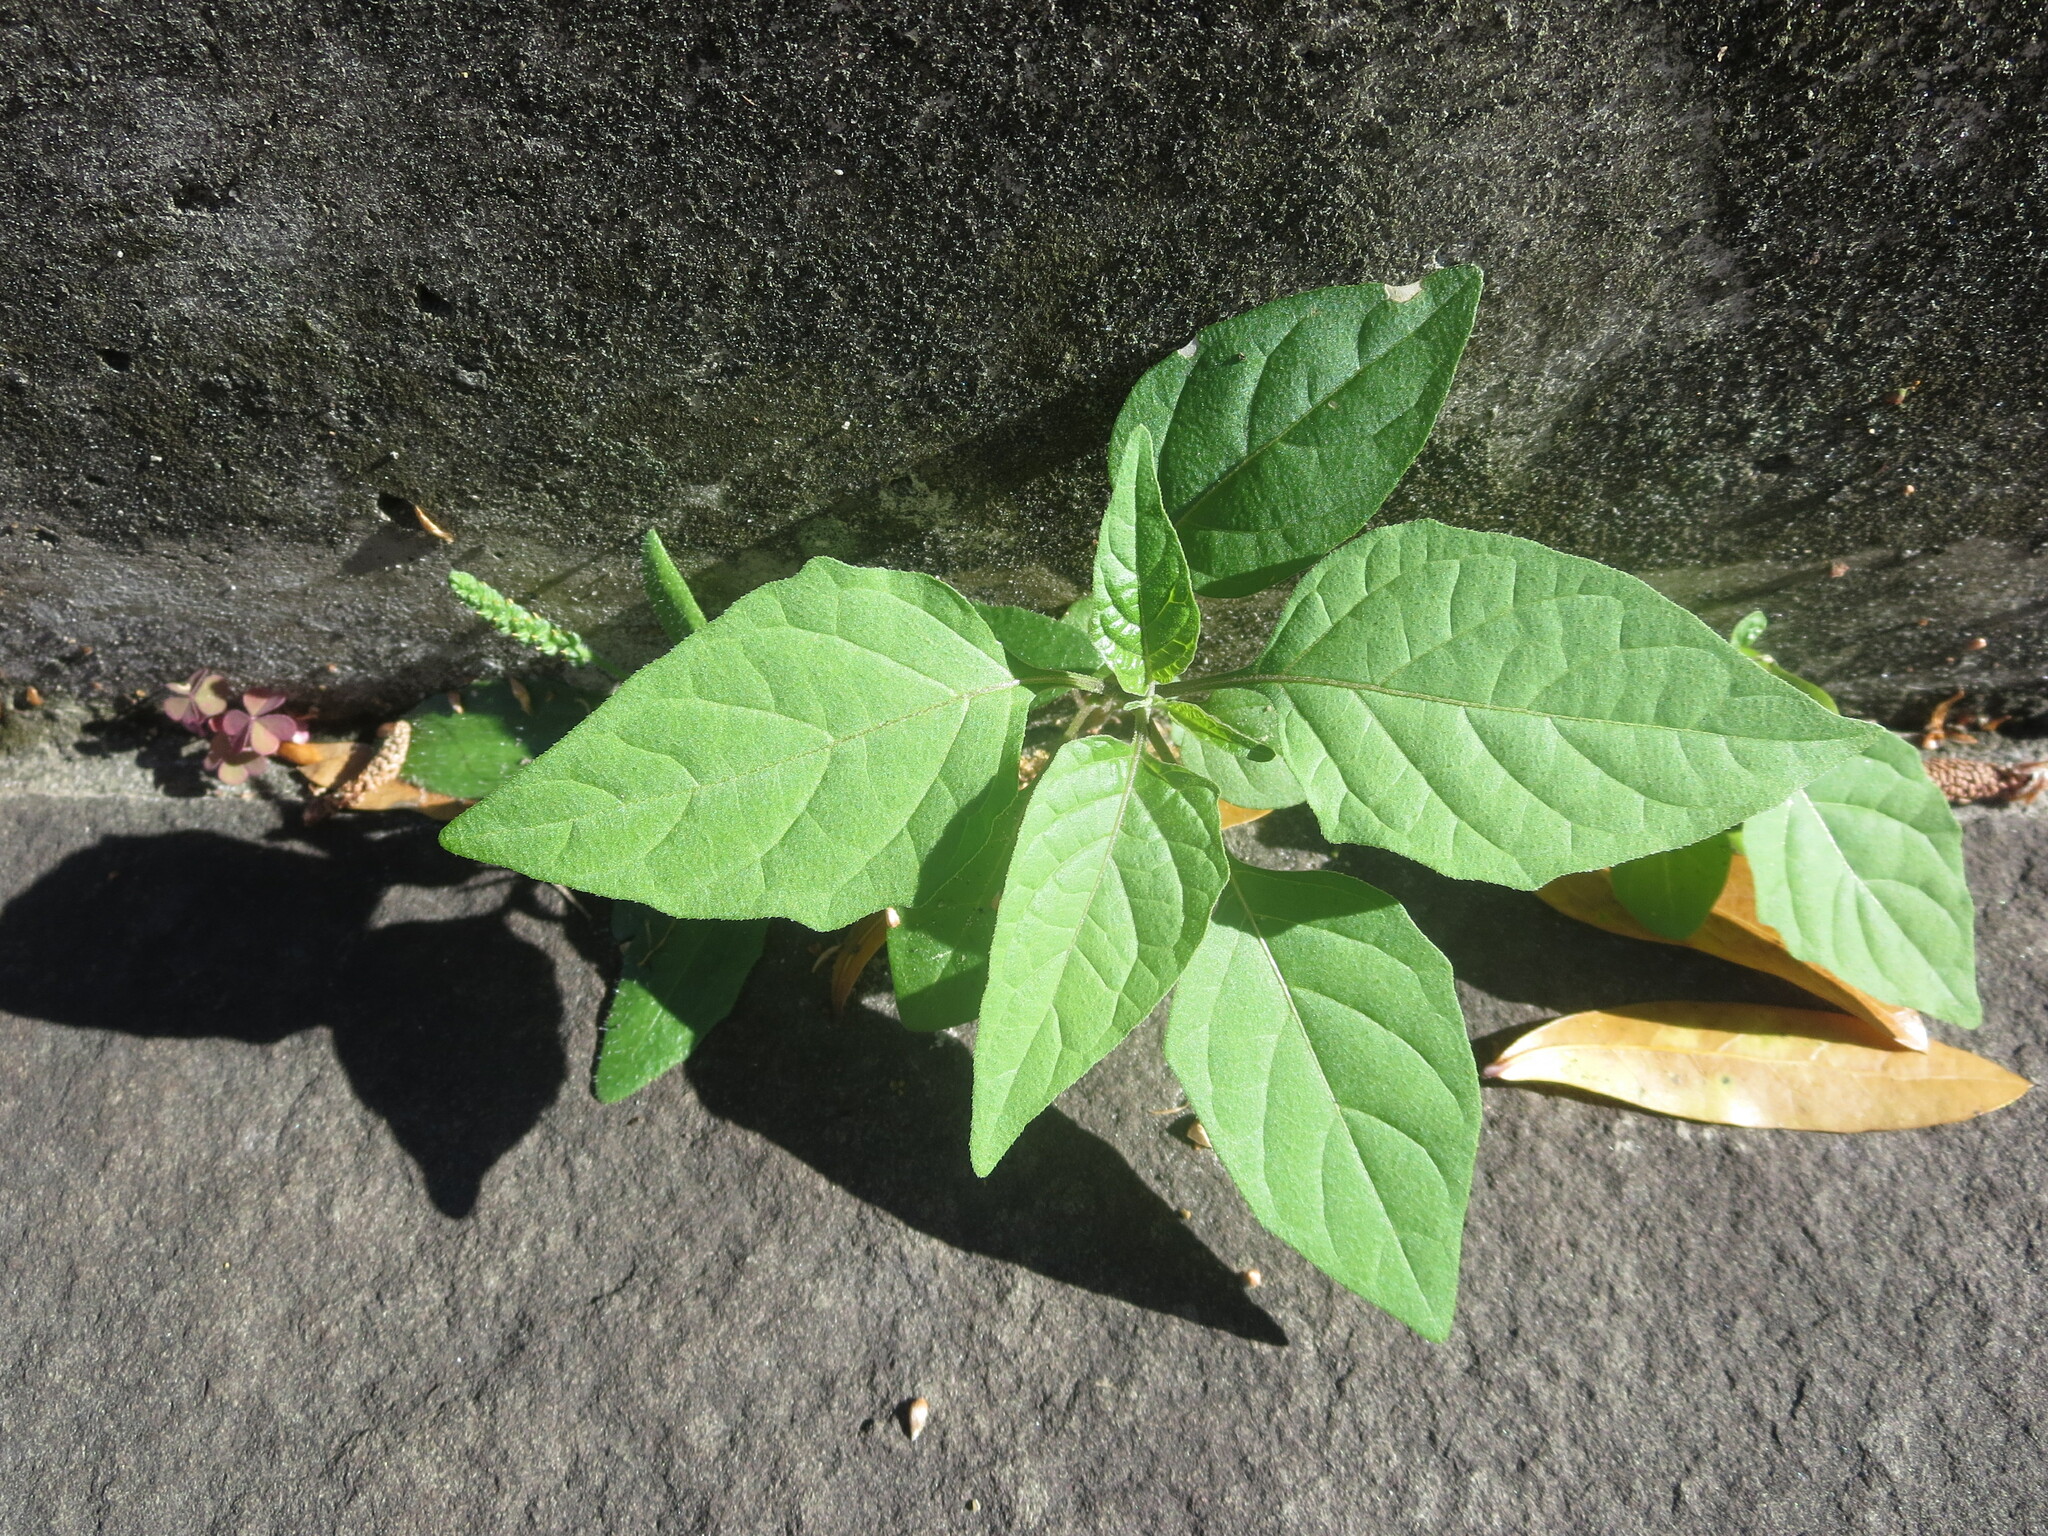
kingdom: Plantae
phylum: Tracheophyta
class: Magnoliopsida
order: Solanales
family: Solanaceae
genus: Solanum
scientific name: Solanum
